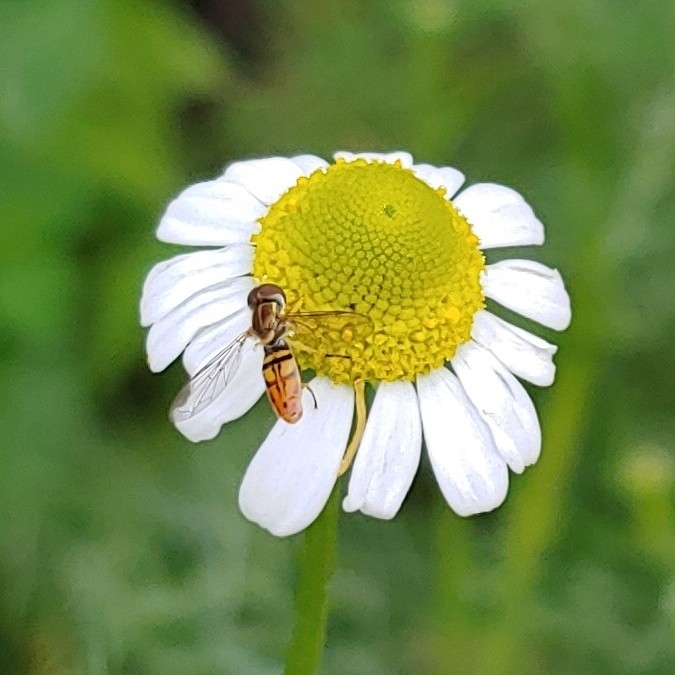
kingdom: Animalia
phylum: Arthropoda
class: Insecta
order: Diptera
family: Syrphidae
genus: Toxomerus
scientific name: Toxomerus marginatus
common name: Syrphid fly
